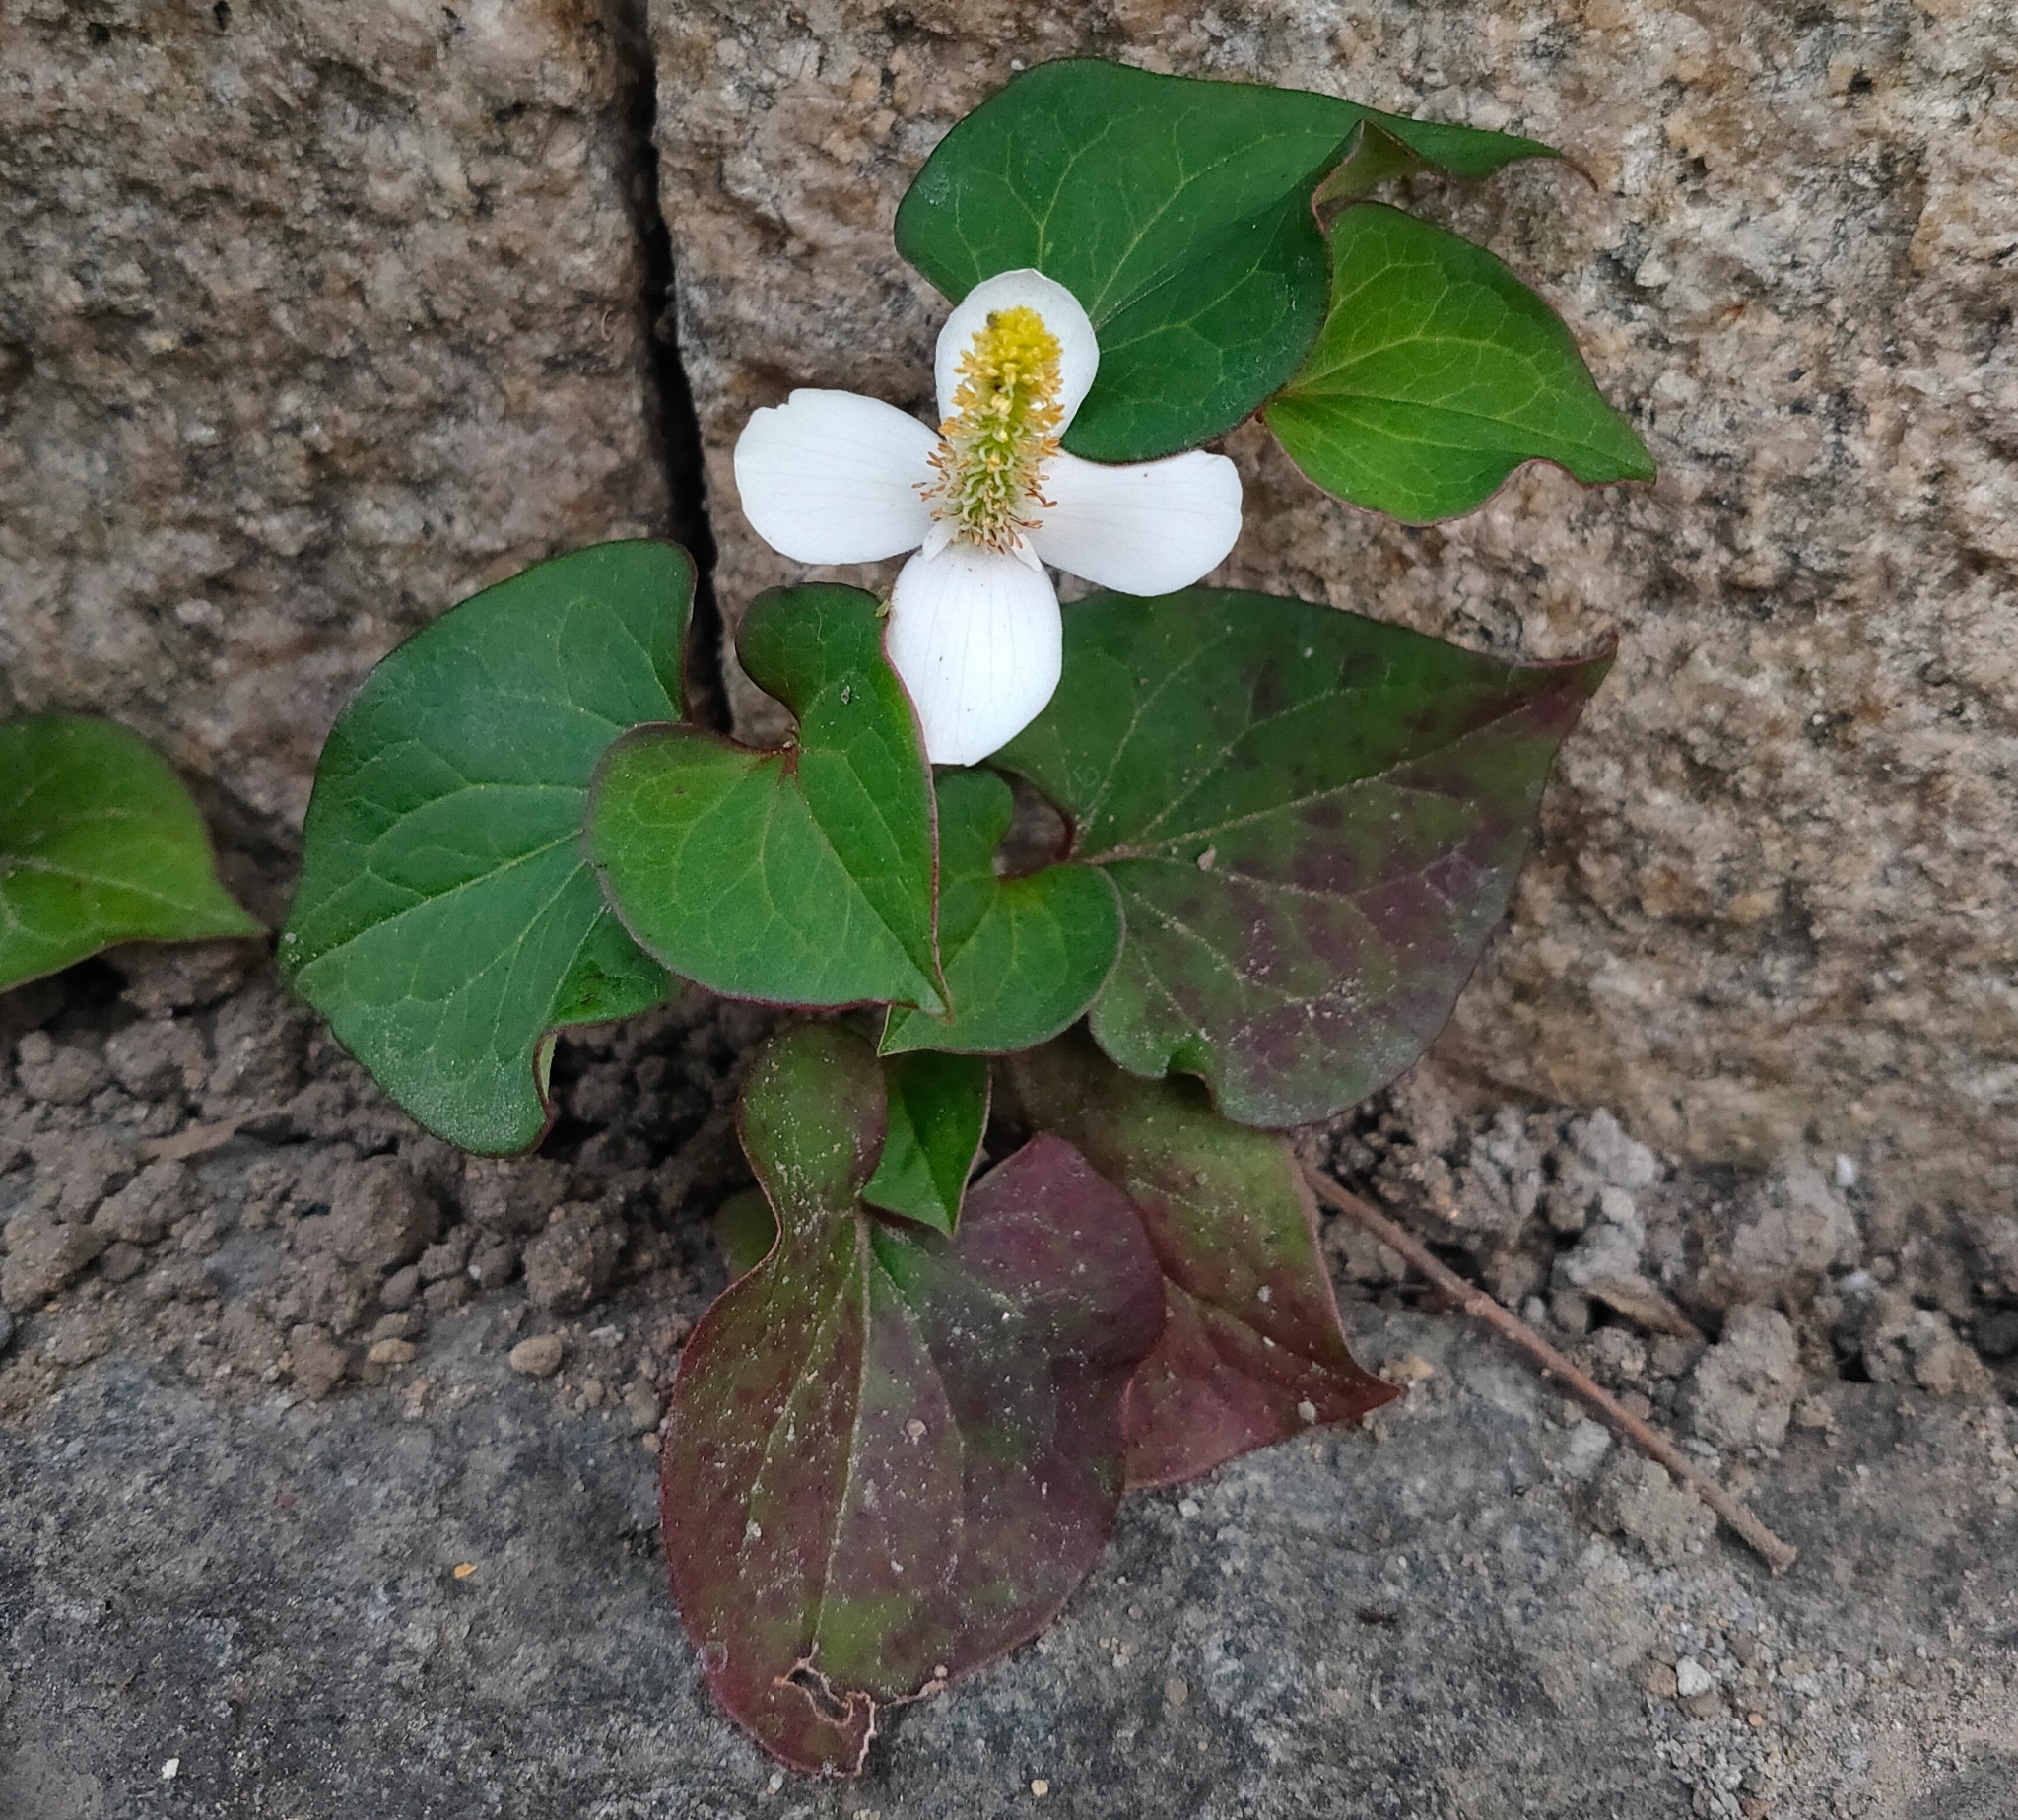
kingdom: Plantae
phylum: Tracheophyta
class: Magnoliopsida
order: Piperales
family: Saururaceae
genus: Houttuynia
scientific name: Houttuynia cordata
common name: Chameleon
